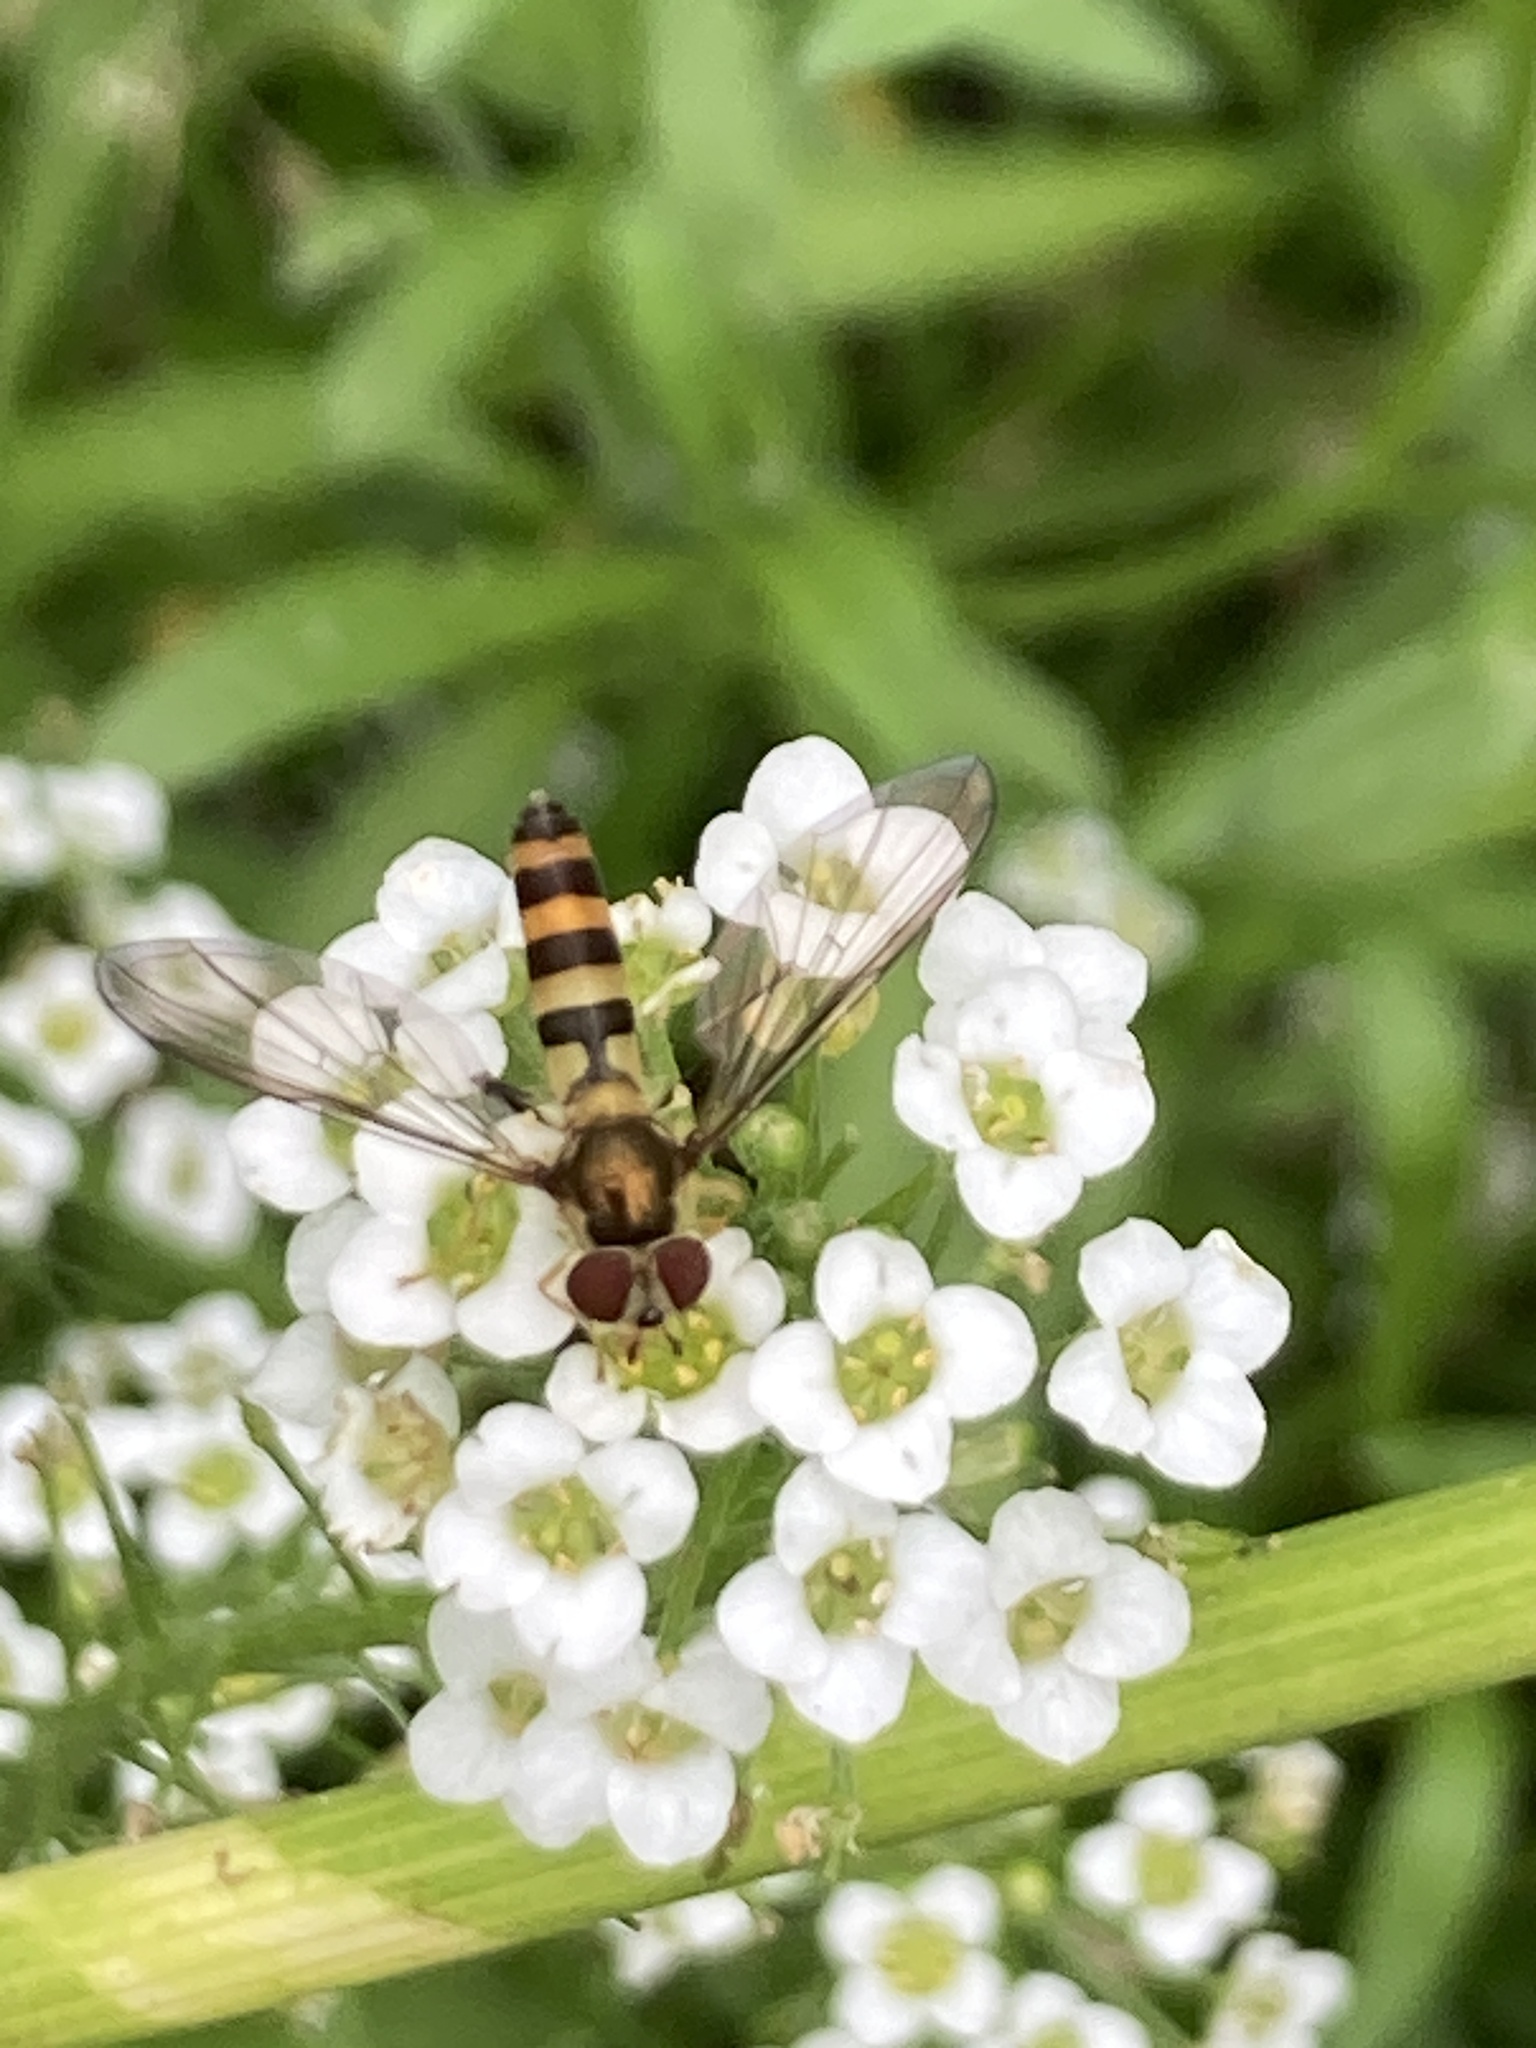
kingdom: Animalia
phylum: Arthropoda
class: Insecta
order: Diptera
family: Syrphidae
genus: Meliscaeva
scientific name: Meliscaeva cinctella
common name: American thintail fly
